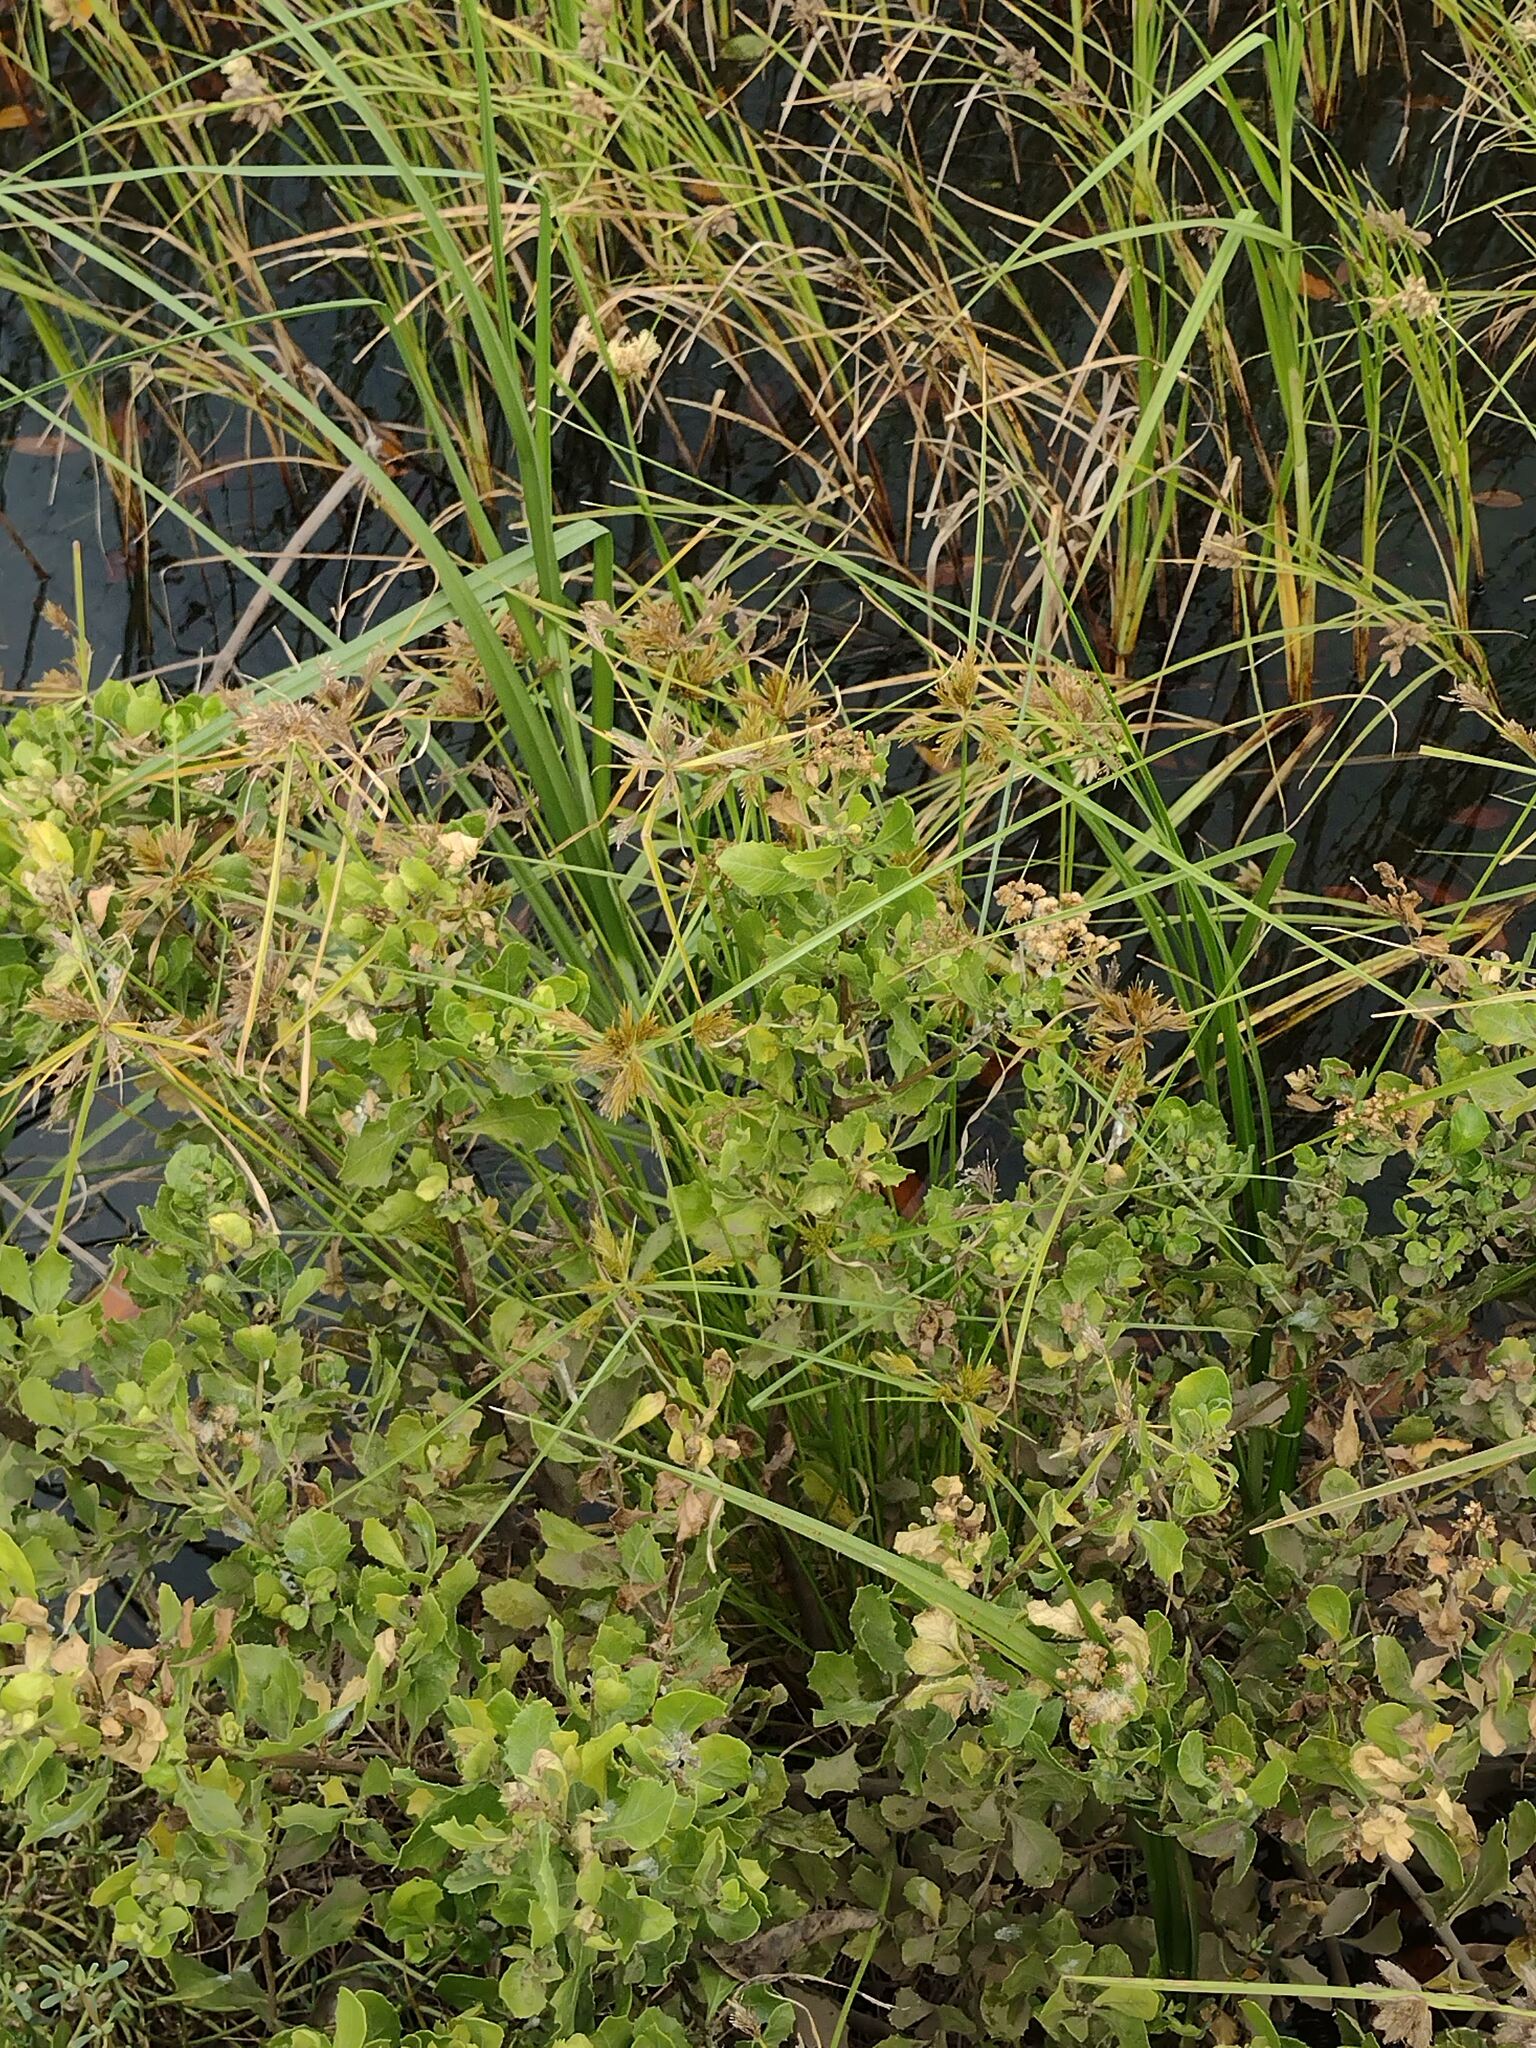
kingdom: Plantae
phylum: Tracheophyta
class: Liliopsida
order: Poales
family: Cyperaceae
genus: Cyperus
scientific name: Cyperus polystachyos
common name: Bunchy flat sedge
